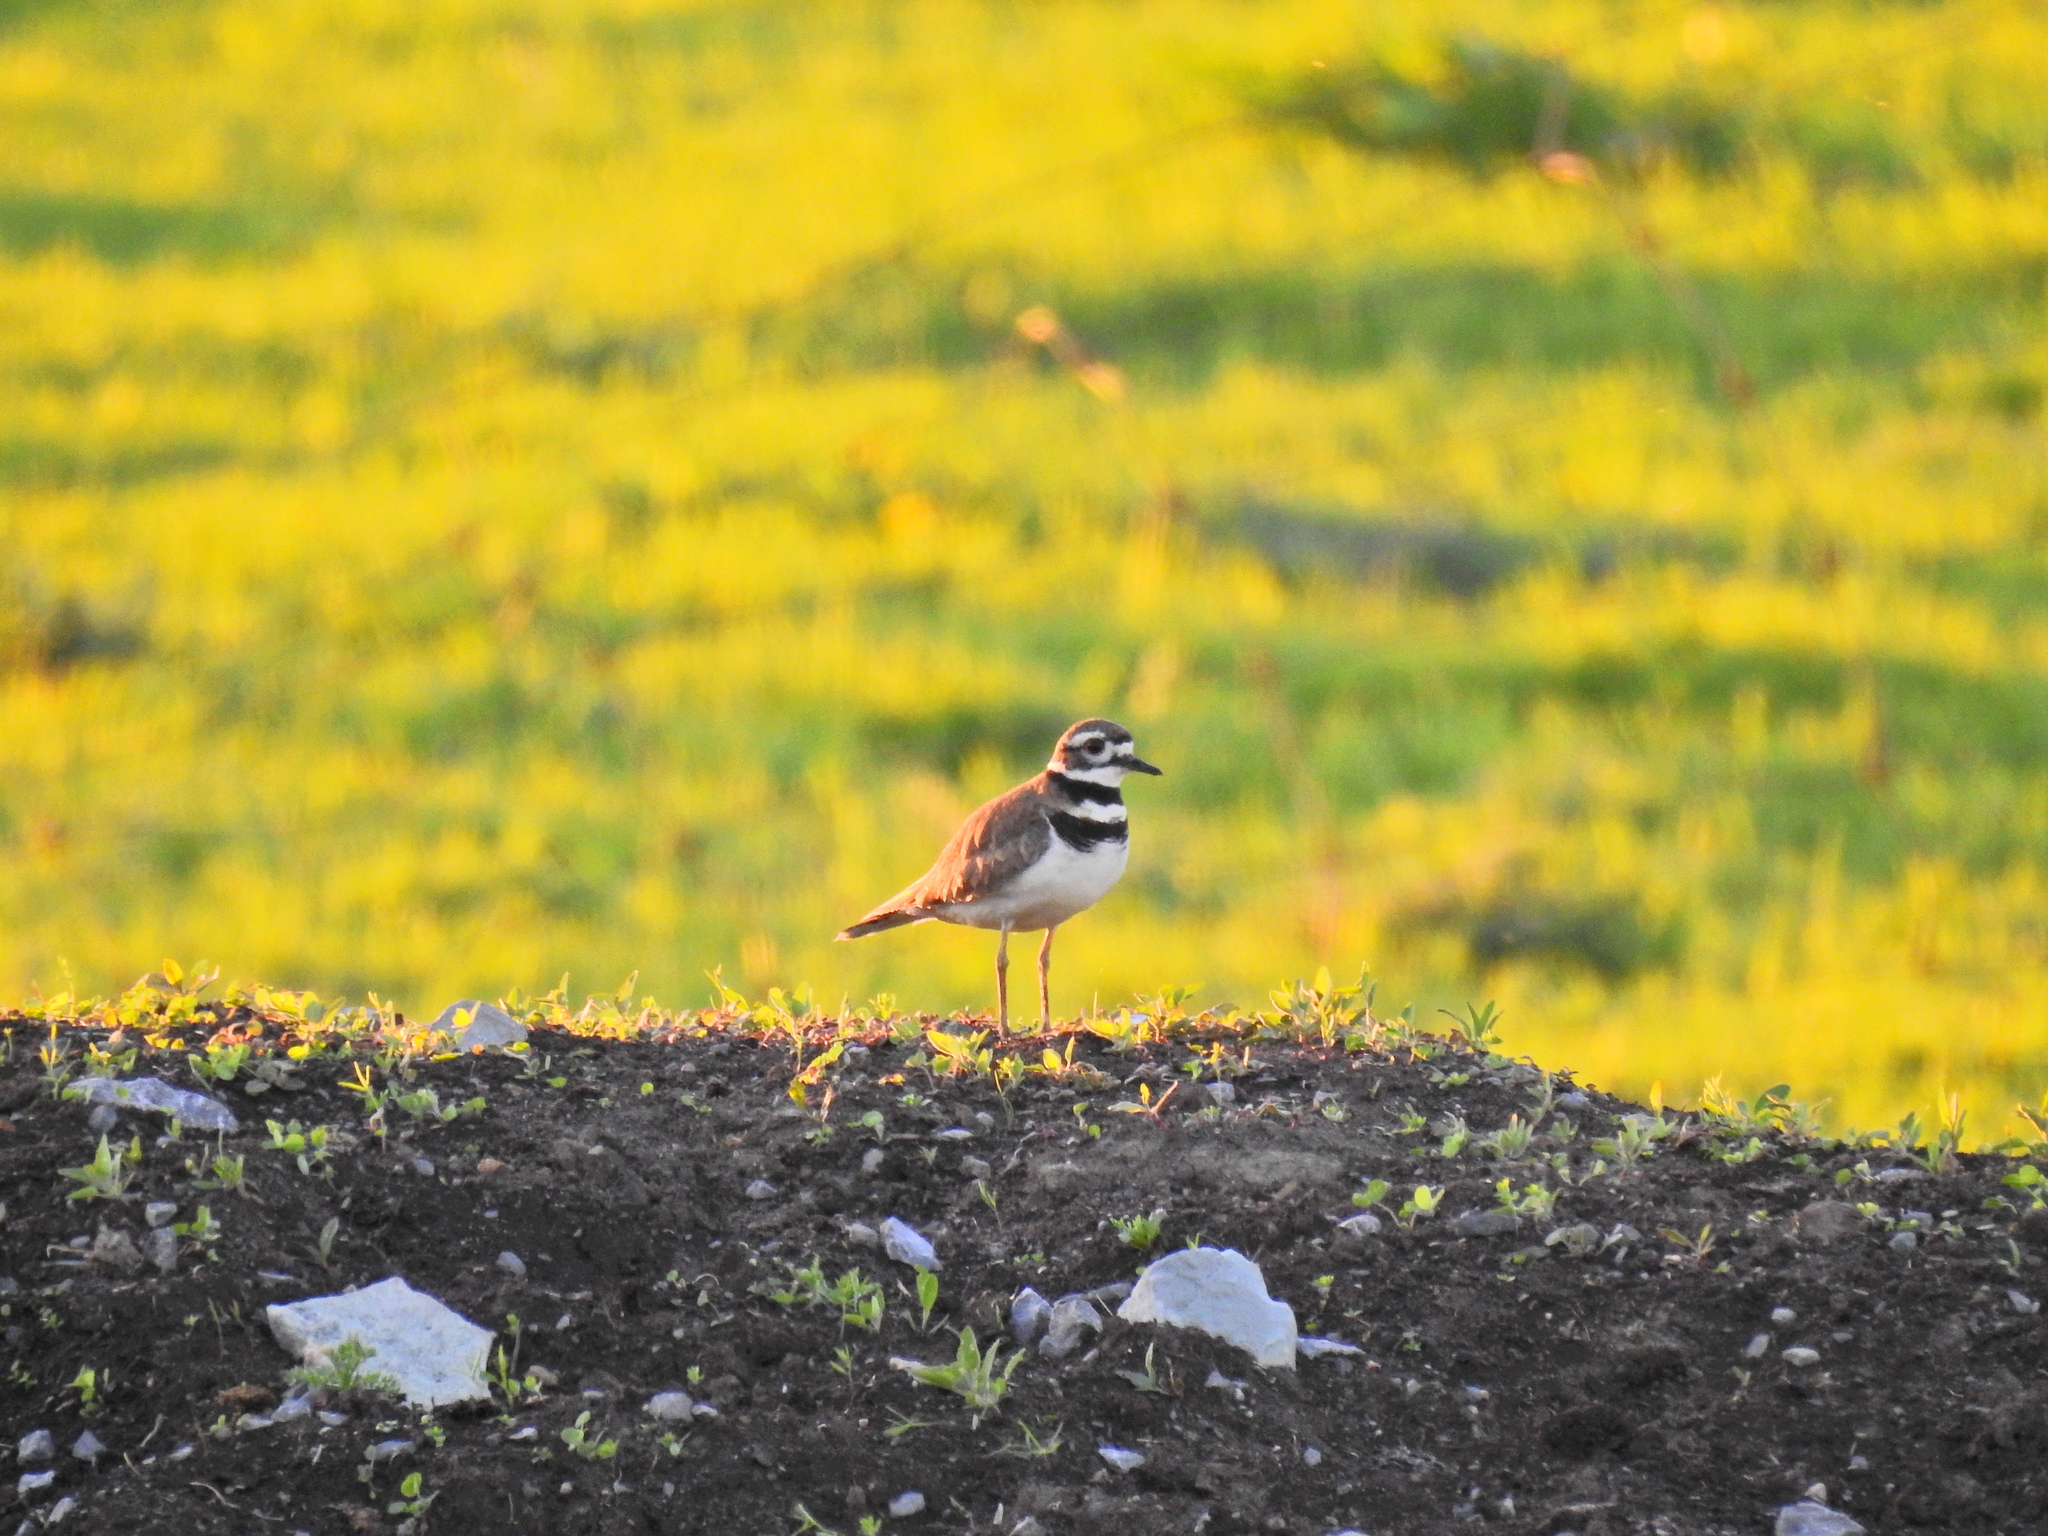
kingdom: Animalia
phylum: Chordata
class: Aves
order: Charadriiformes
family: Charadriidae
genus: Charadrius
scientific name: Charadrius vociferus
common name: Killdeer
